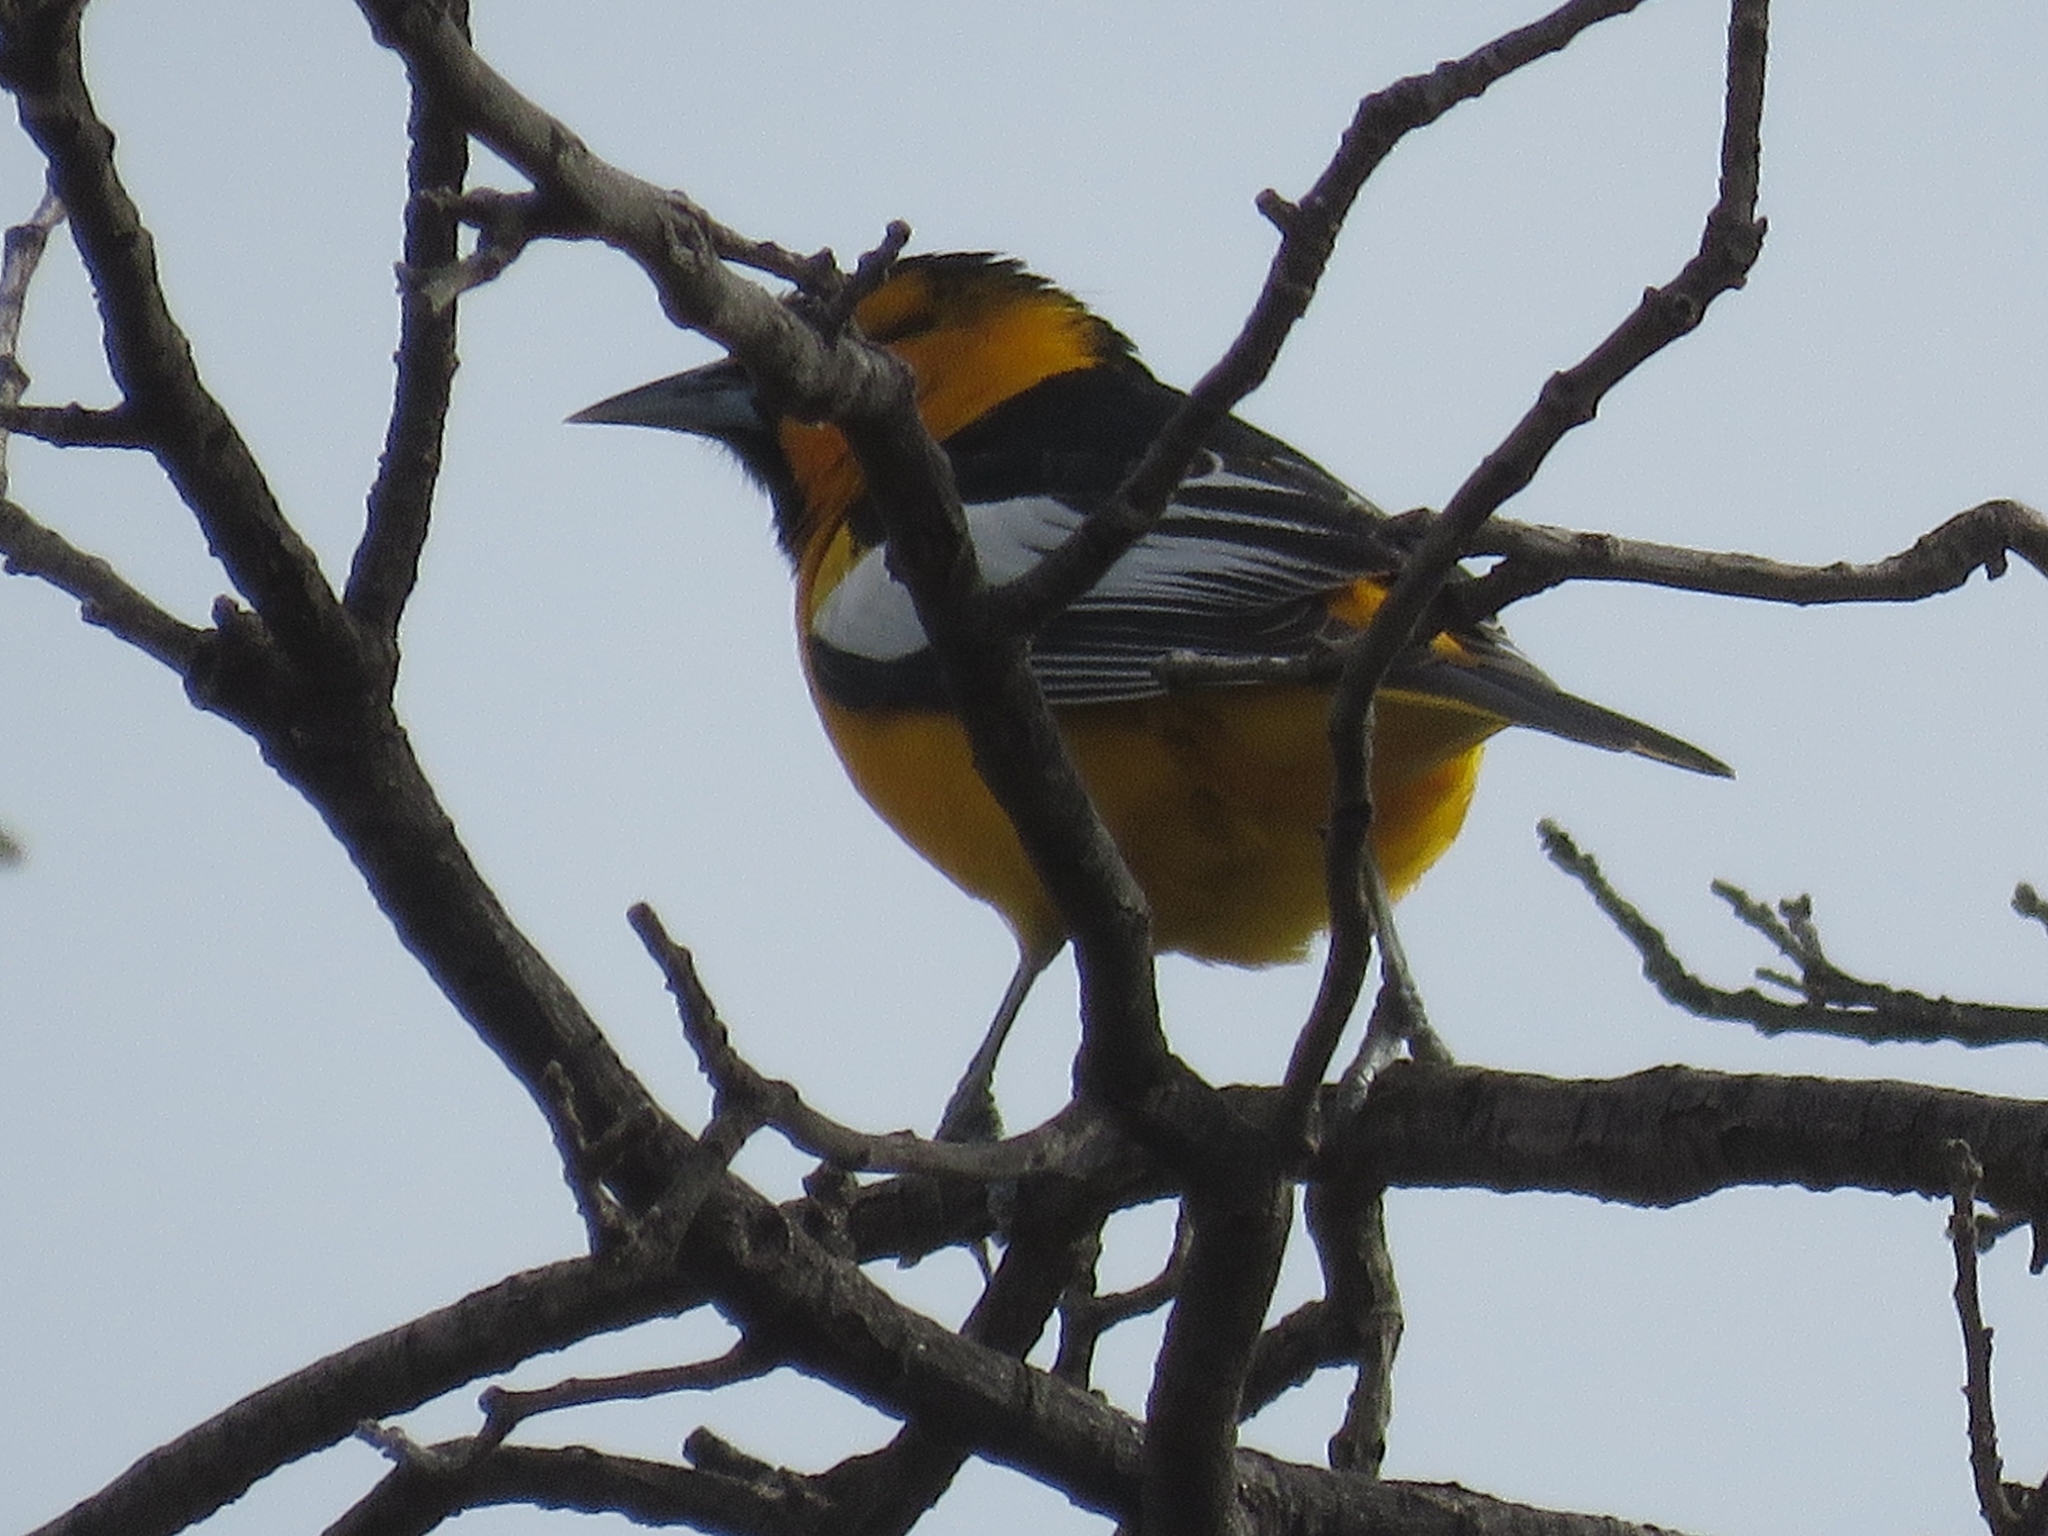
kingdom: Animalia
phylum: Chordata
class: Aves
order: Passeriformes
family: Icteridae
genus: Icterus
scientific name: Icterus bullockii
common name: Bullock's oriole
